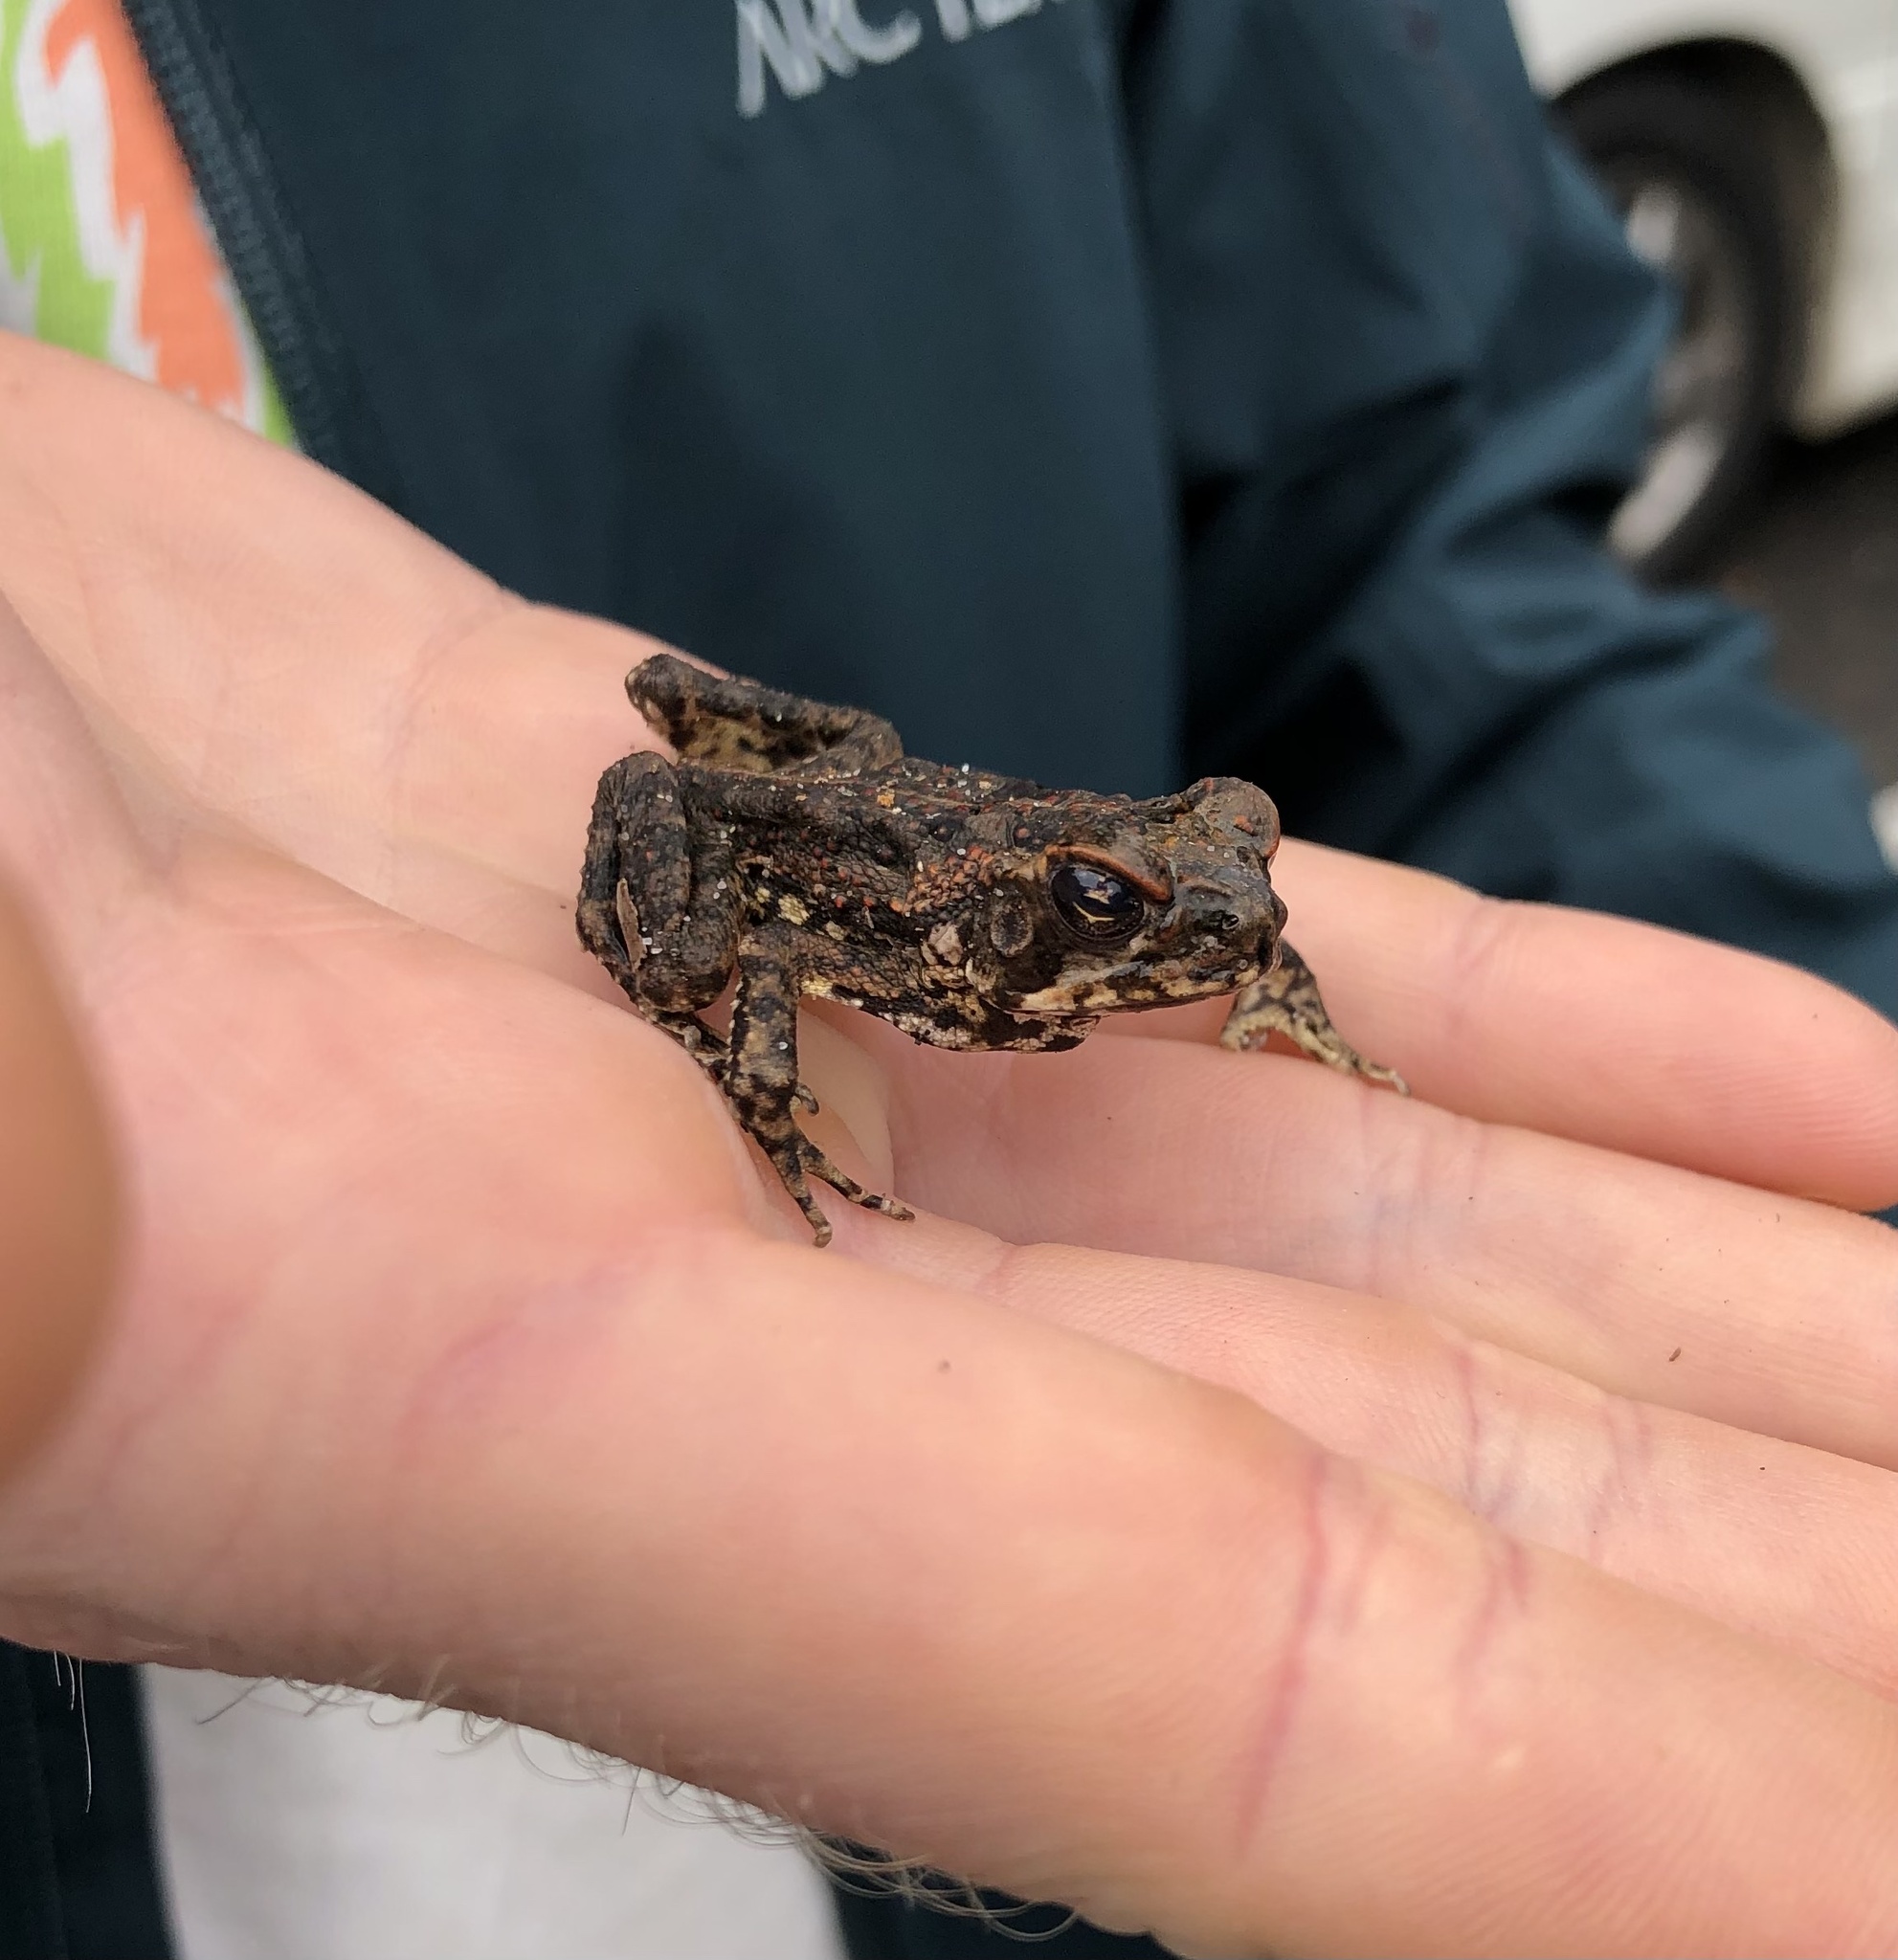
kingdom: Animalia
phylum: Chordata
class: Amphibia
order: Anura
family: Bufonidae
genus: Rhinella
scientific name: Rhinella marina
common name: Cane toad
